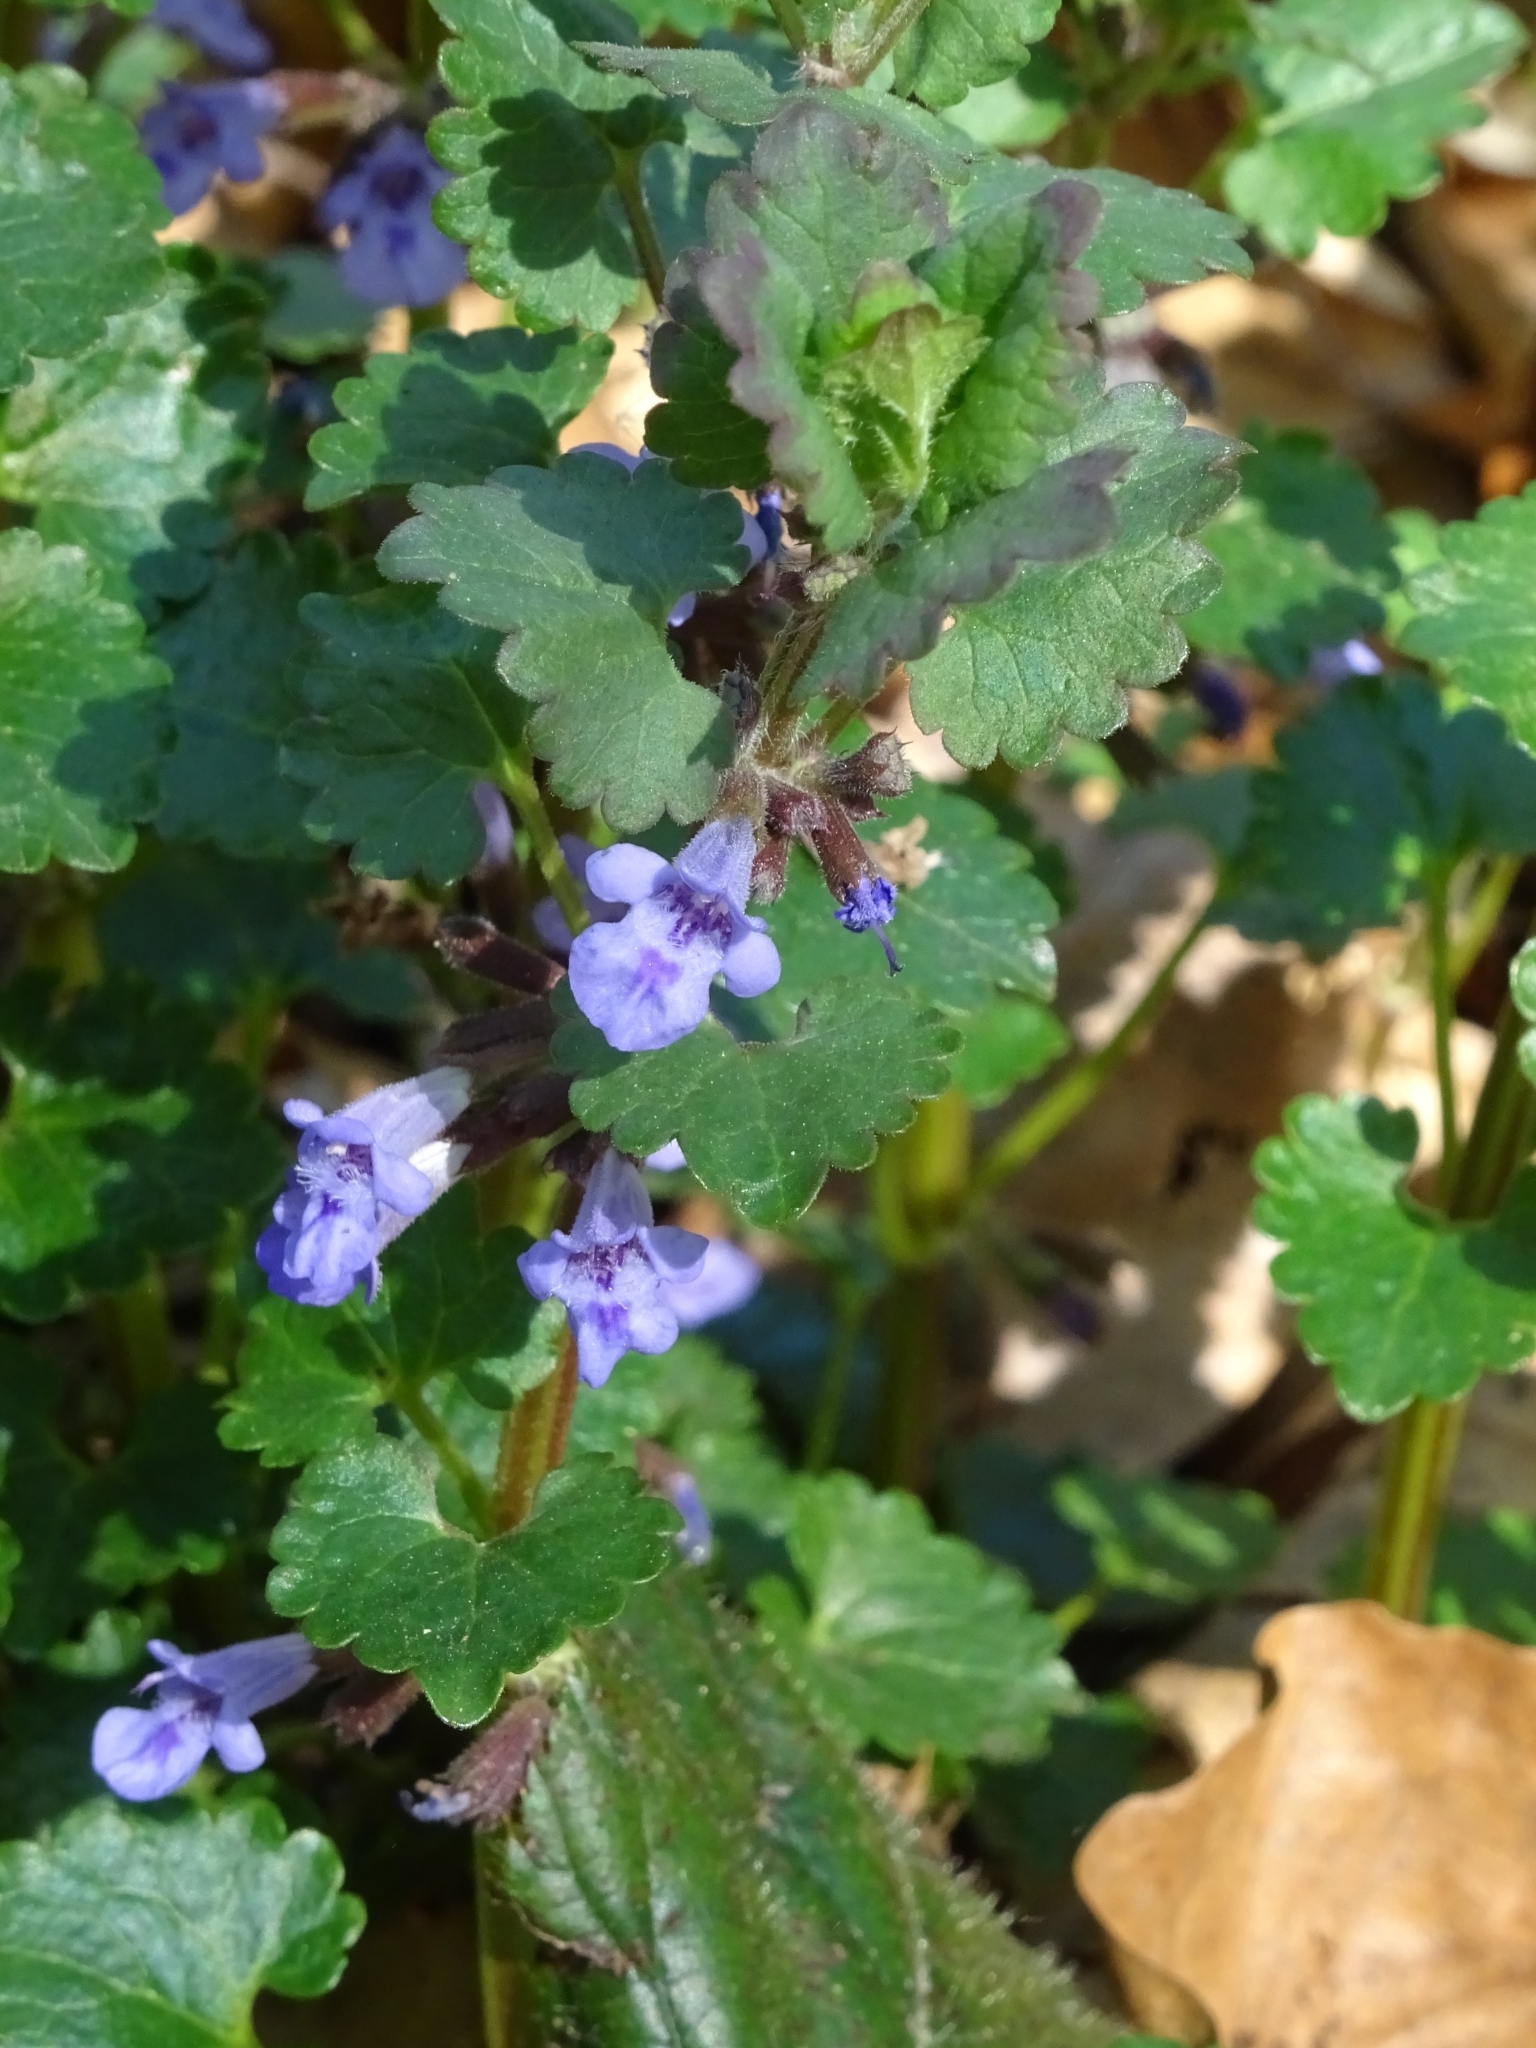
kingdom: Plantae
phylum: Tracheophyta
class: Magnoliopsida
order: Lamiales
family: Lamiaceae
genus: Glechoma
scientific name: Glechoma hederacea
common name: Ground ivy
